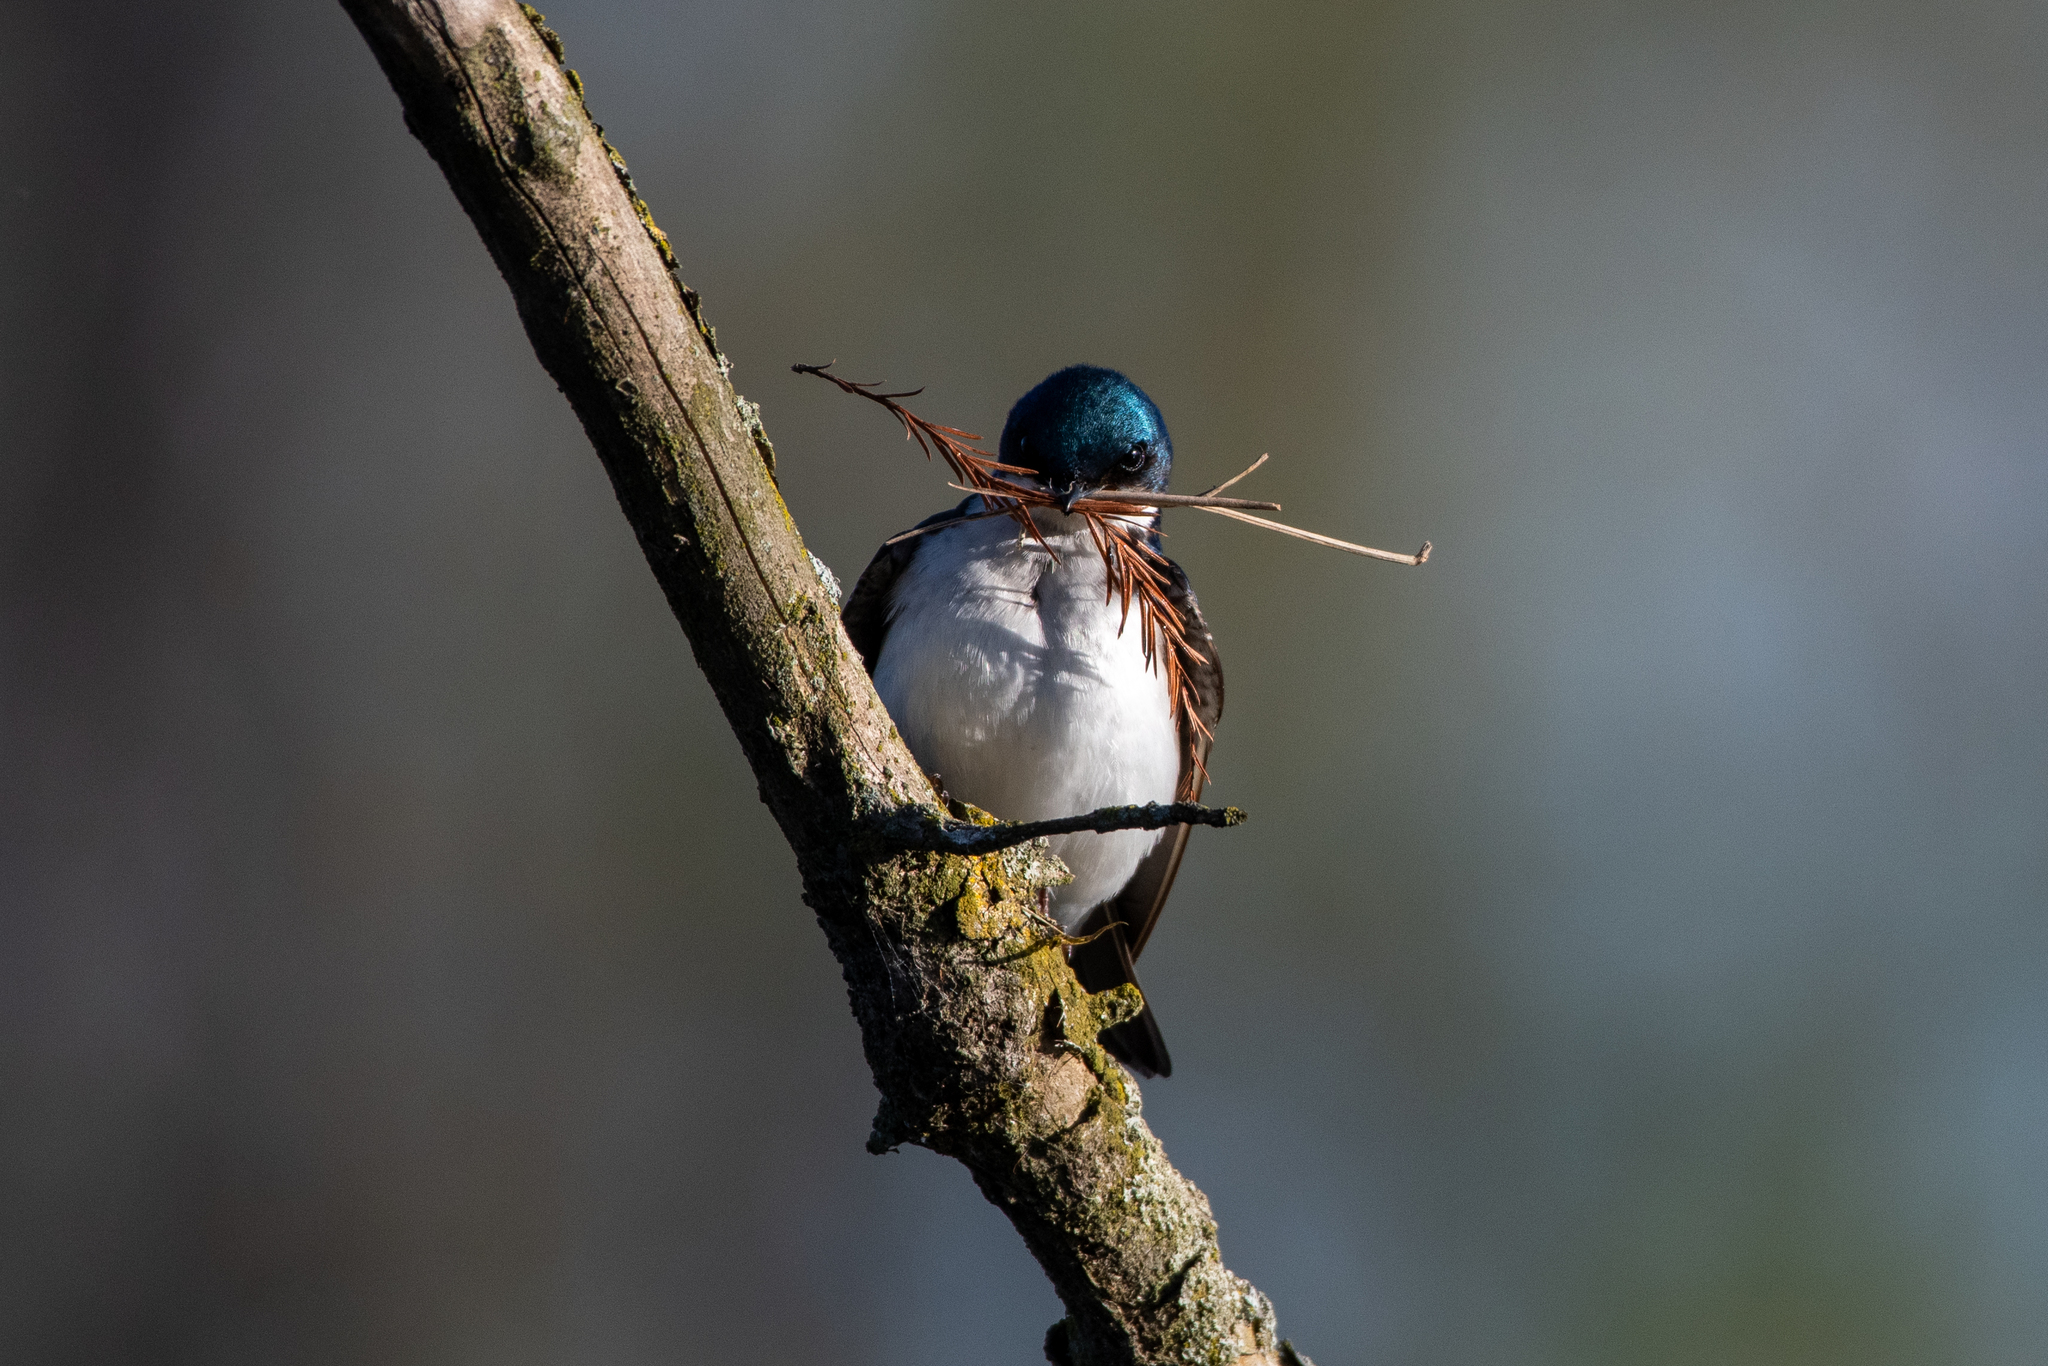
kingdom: Animalia
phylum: Chordata
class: Aves
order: Passeriformes
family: Hirundinidae
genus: Tachycineta
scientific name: Tachycineta bicolor
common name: Tree swallow
